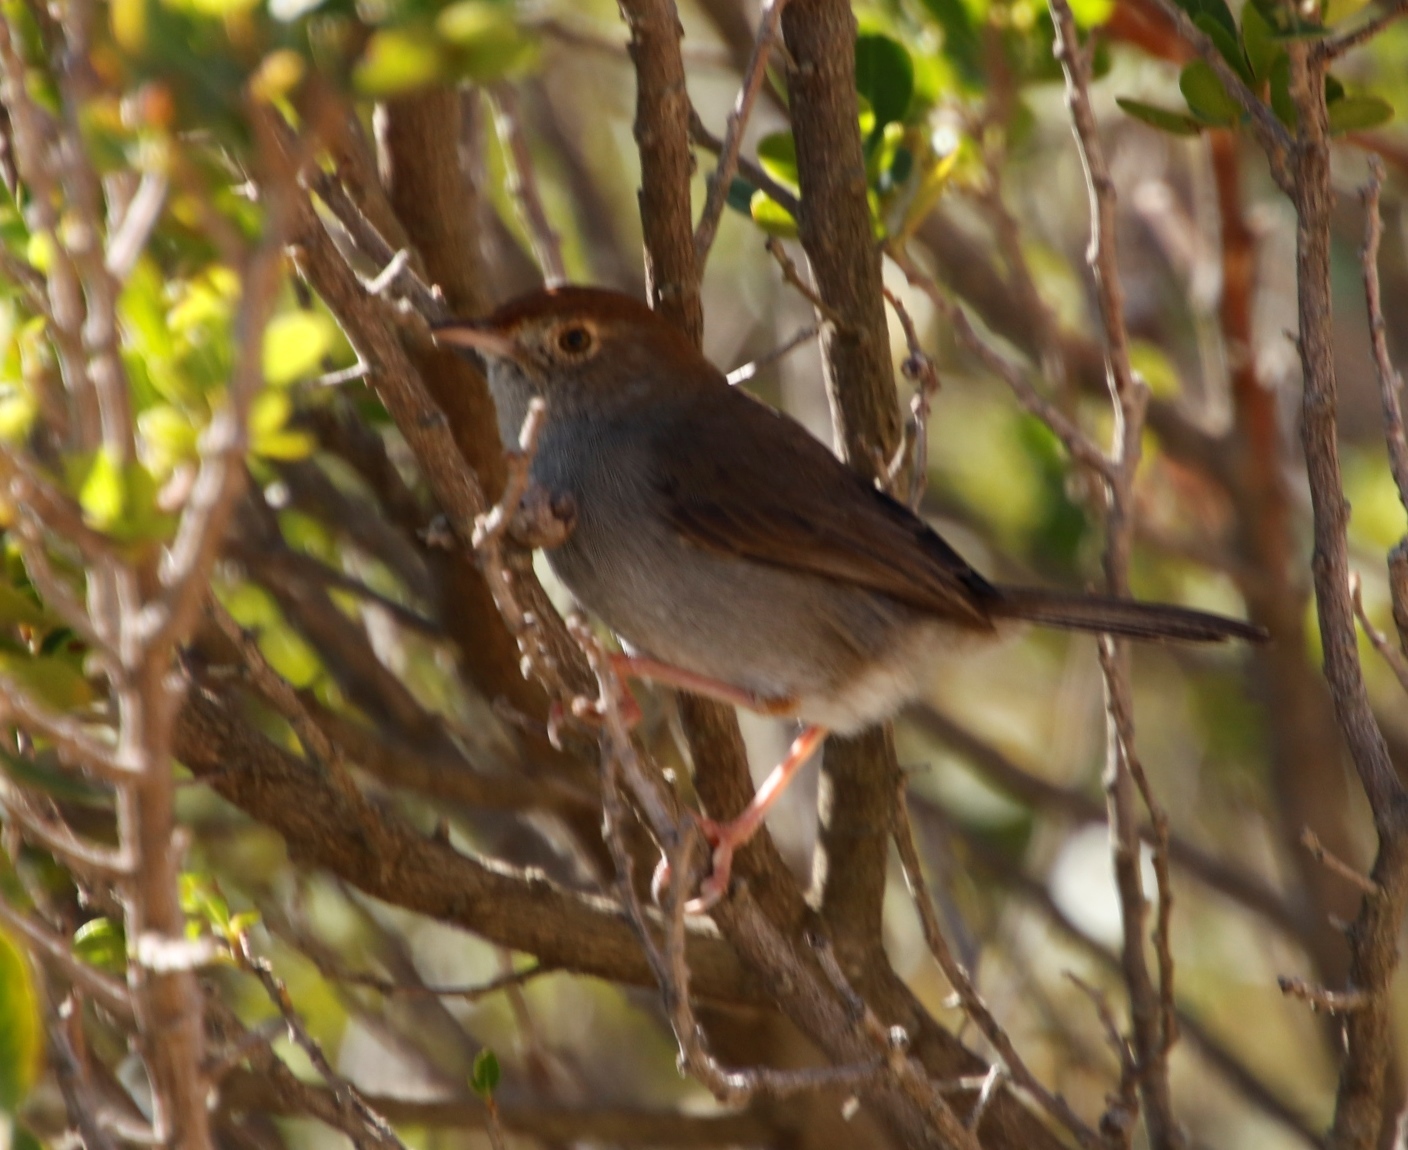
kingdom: Animalia
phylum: Chordata
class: Aves
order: Passeriformes
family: Cisticolidae
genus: Cisticola
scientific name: Cisticola fulvicapilla
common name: Neddicky
